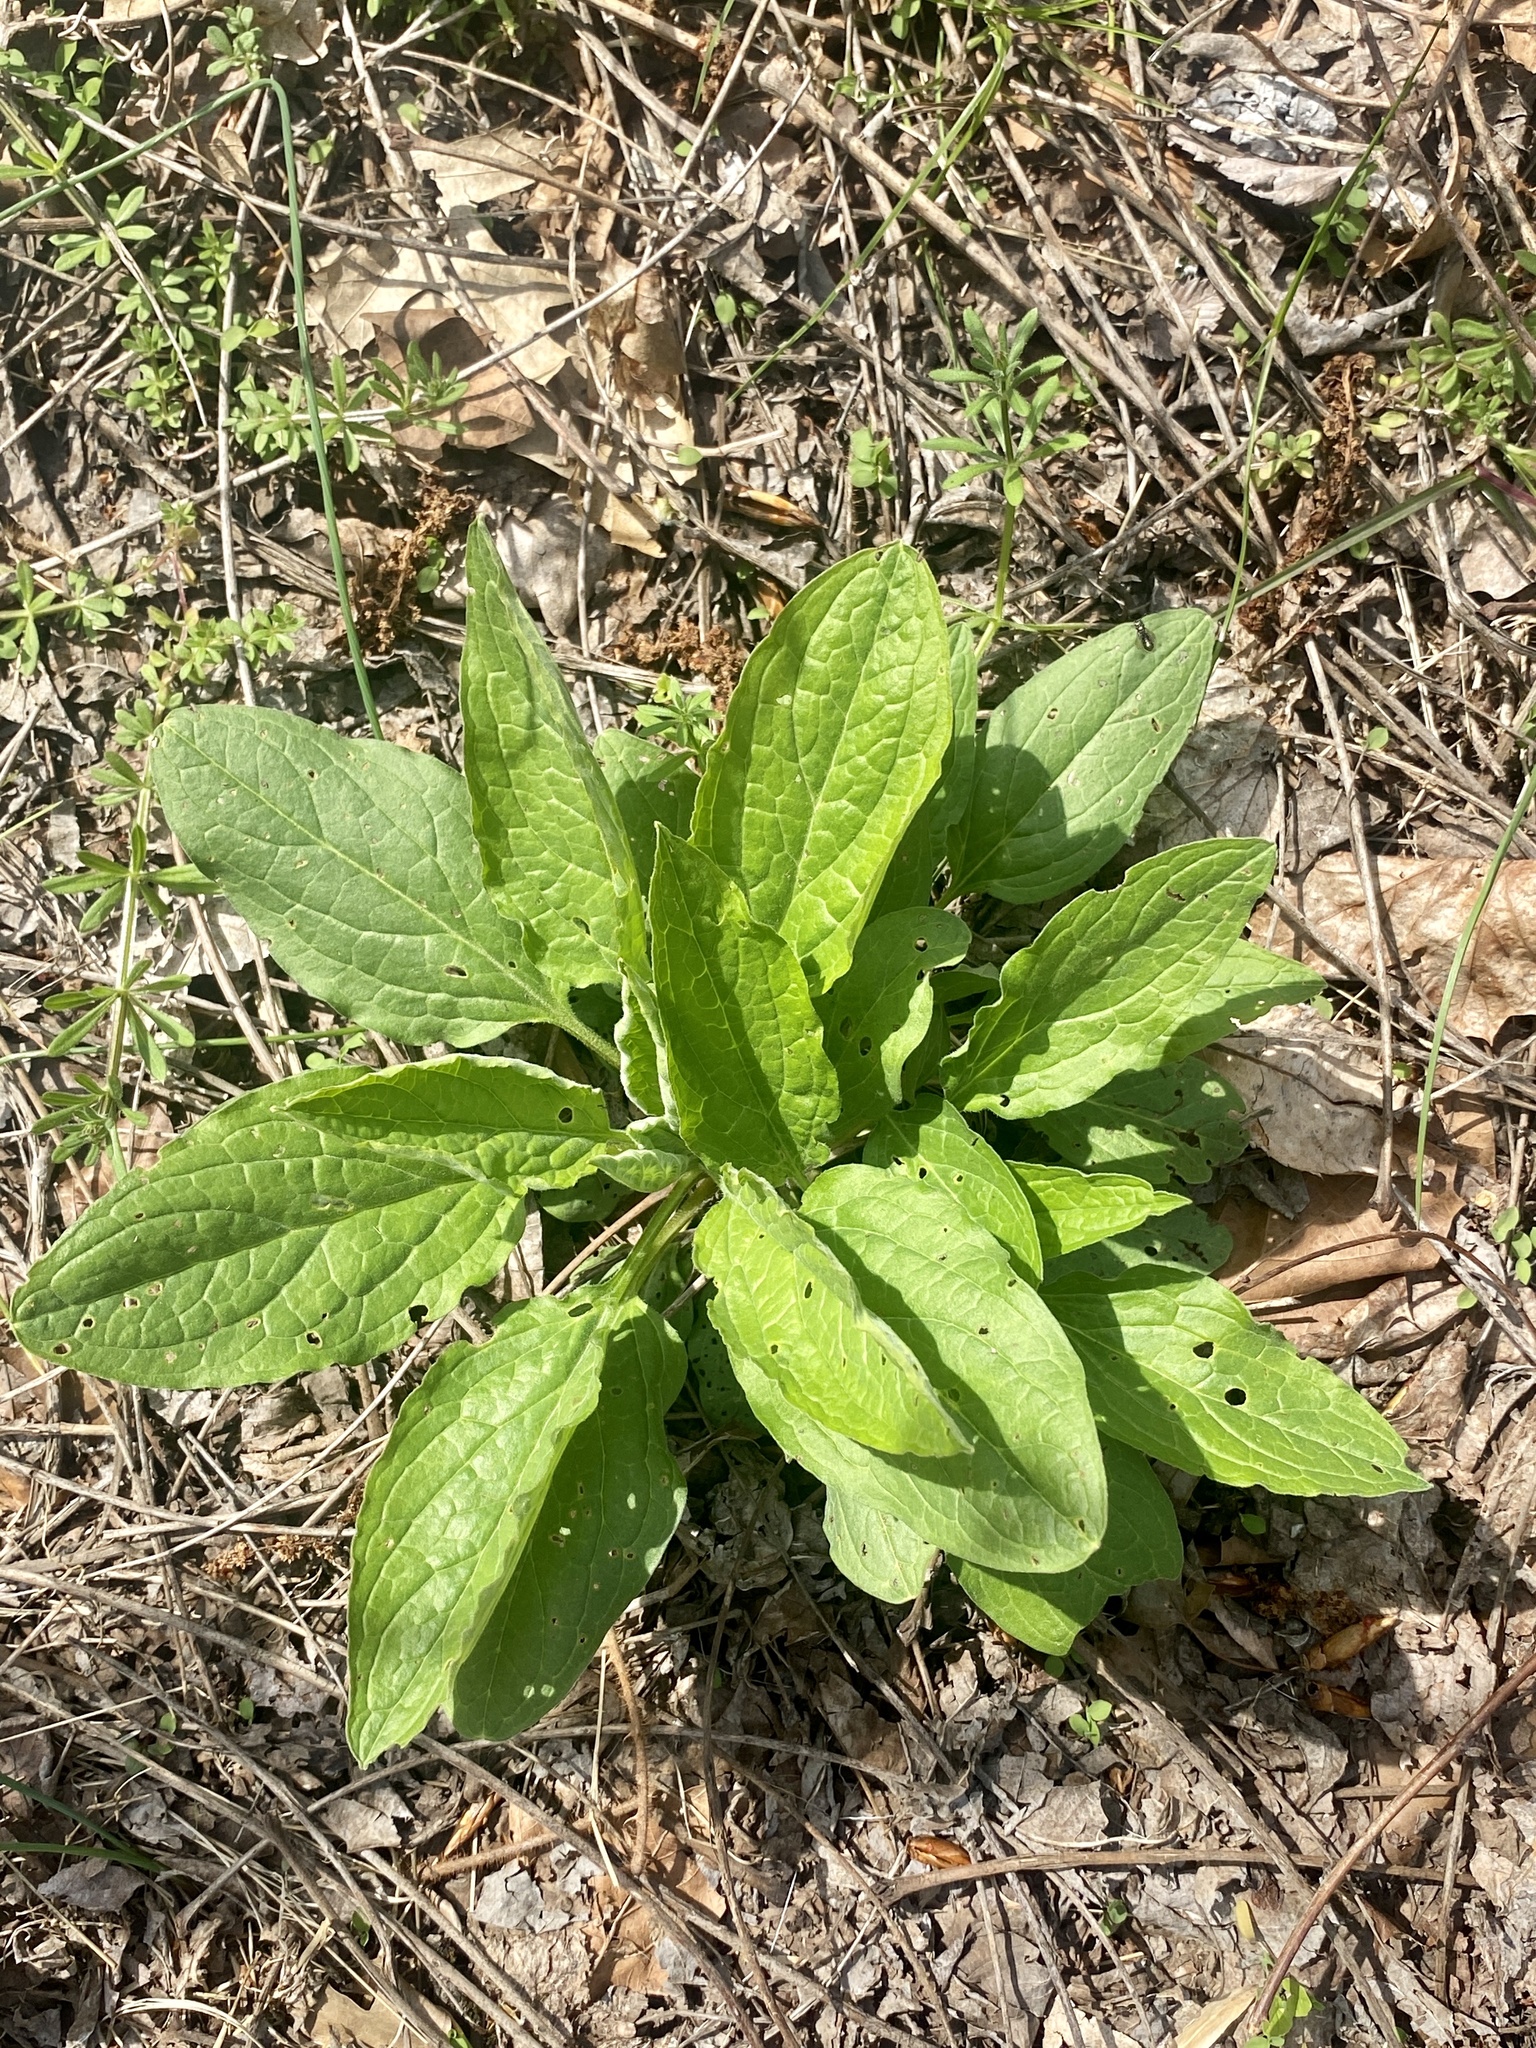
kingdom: Plantae
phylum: Tracheophyta
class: Magnoliopsida
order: Boraginales
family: Boraginaceae
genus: Hackelia
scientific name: Hackelia virginiana
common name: Beggar's-lice
